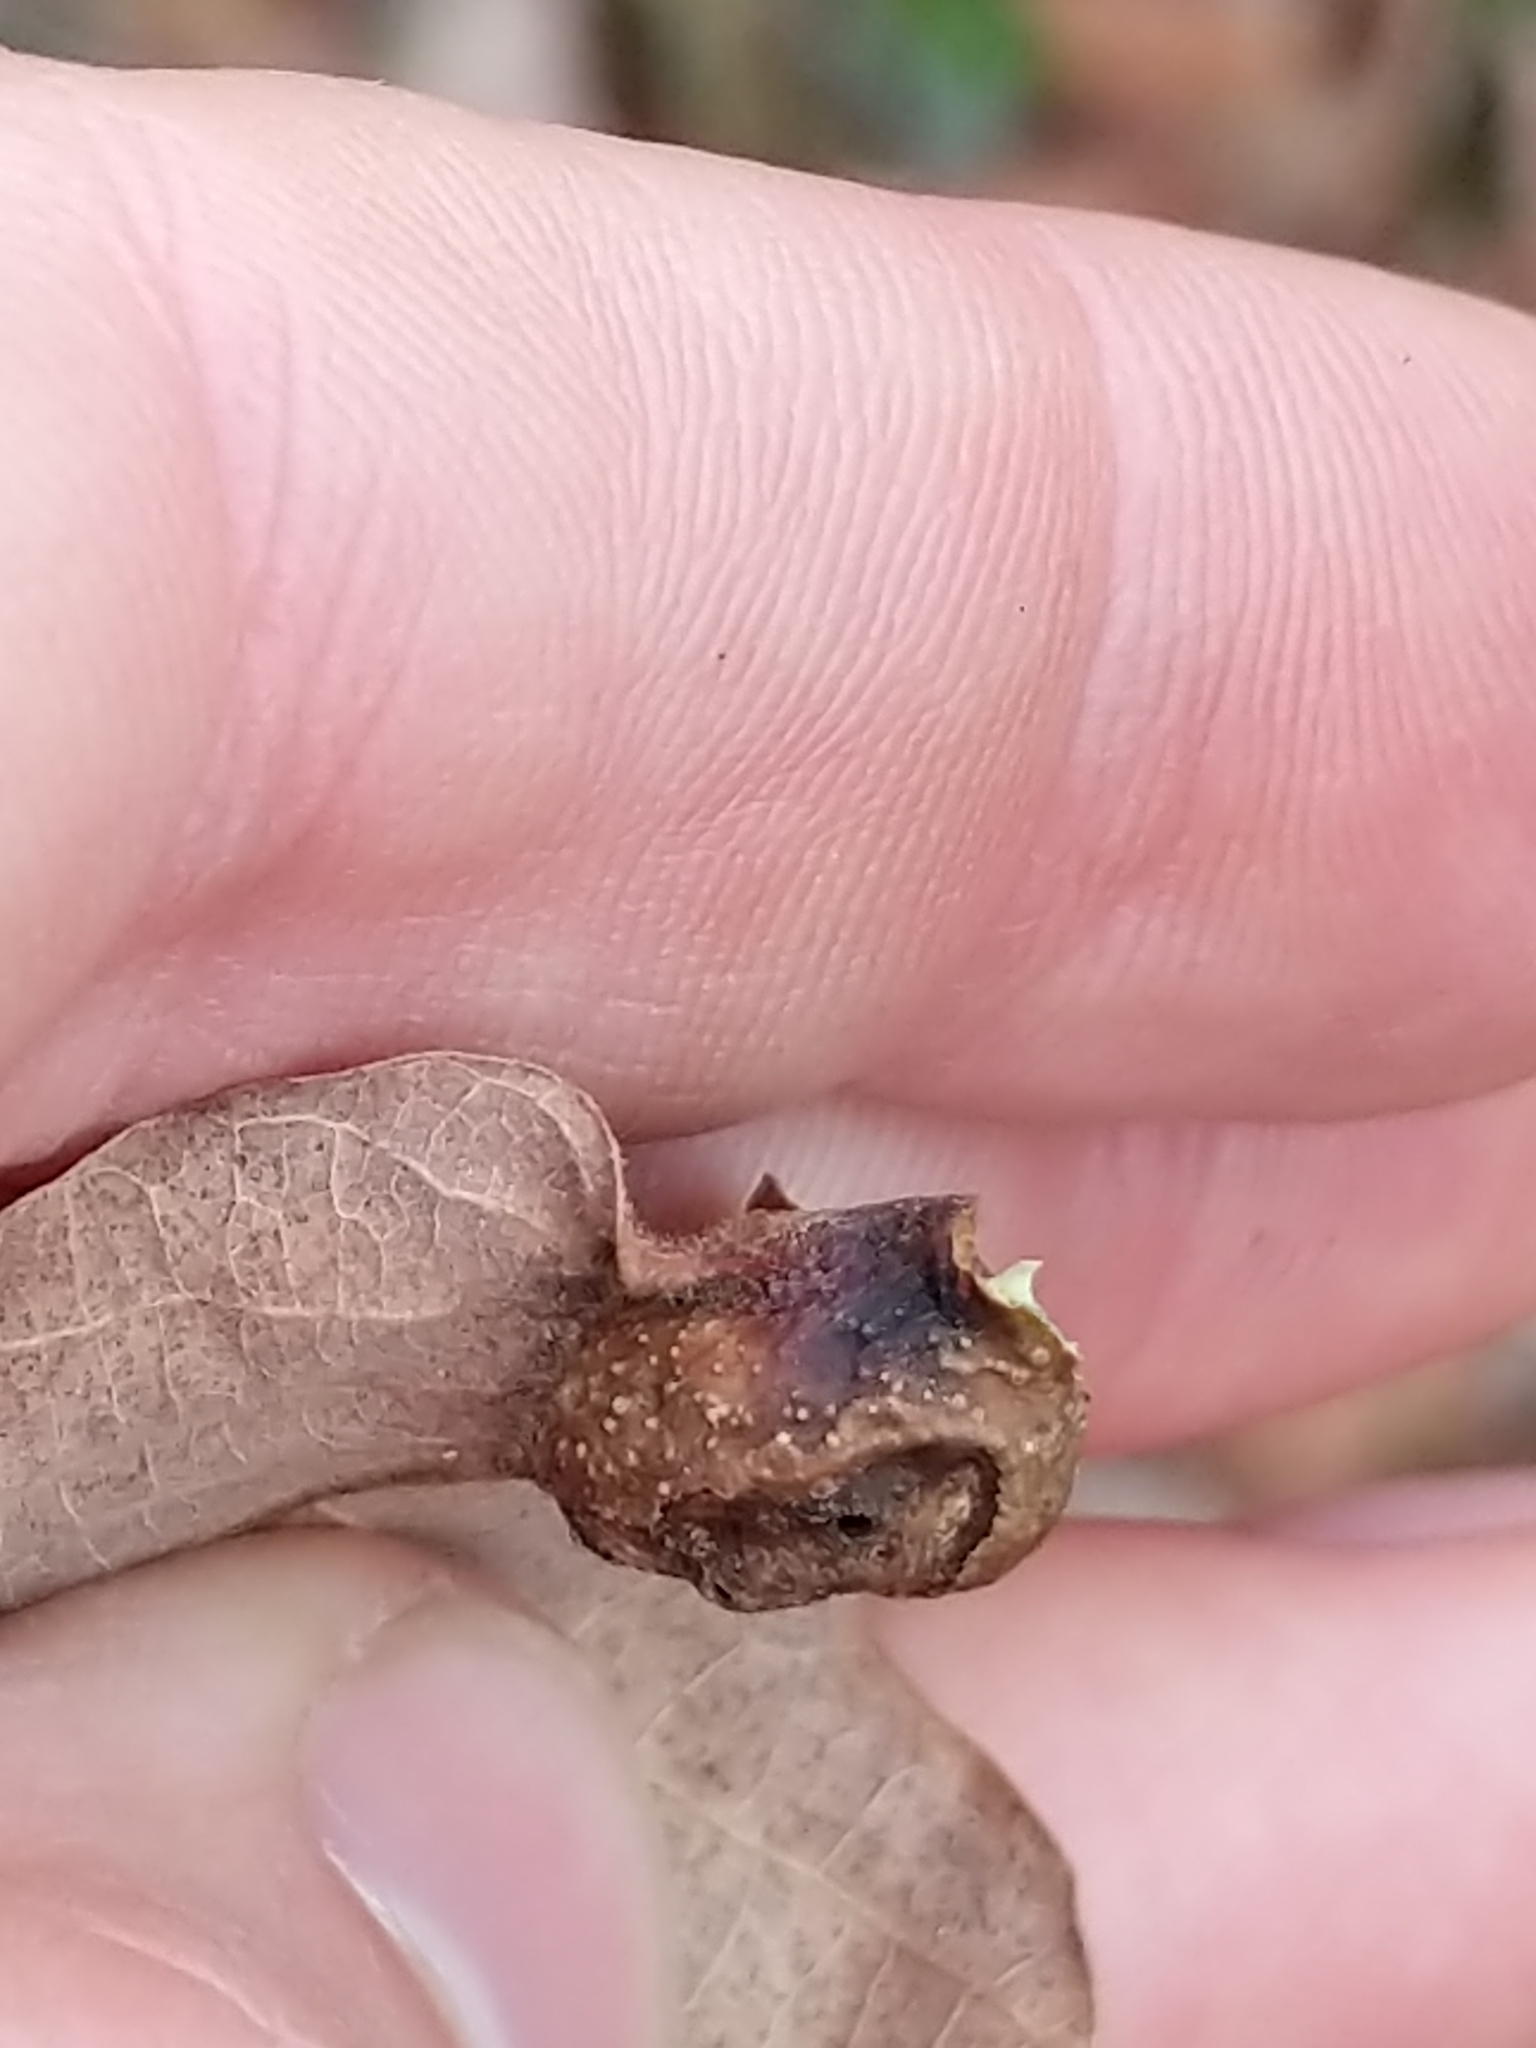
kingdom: Animalia
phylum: Arthropoda
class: Insecta
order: Hymenoptera
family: Cynipidae
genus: Andricus
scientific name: Andricus
